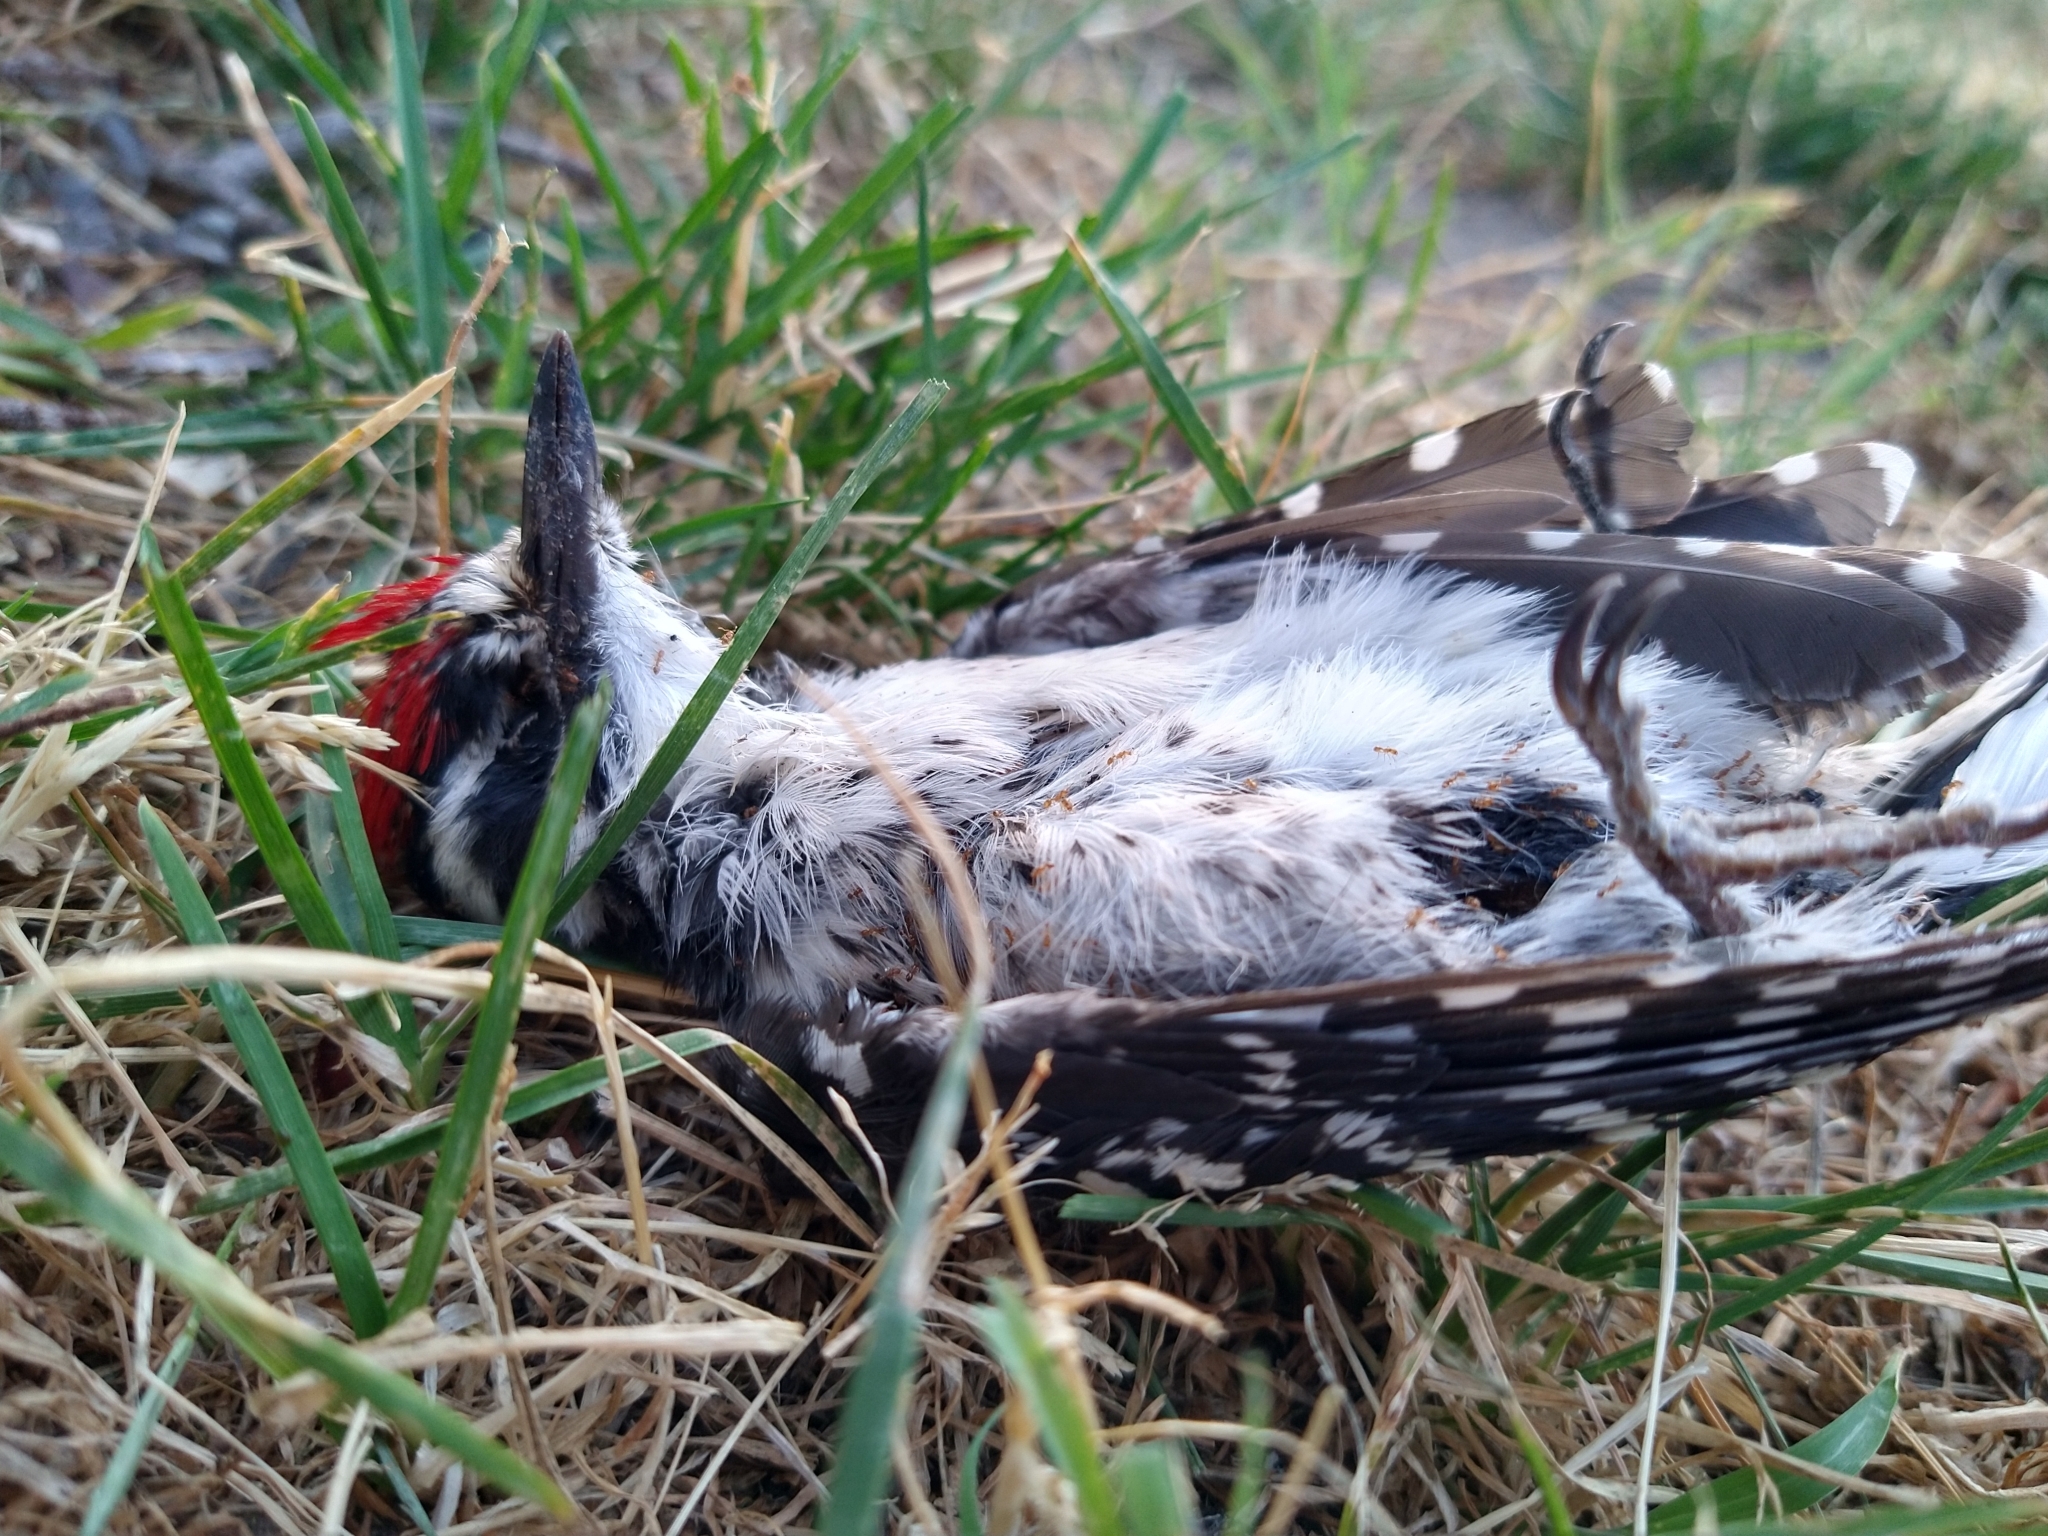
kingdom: Animalia
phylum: Chordata
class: Aves
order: Piciformes
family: Picidae
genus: Dryobates
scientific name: Dryobates nuttallii
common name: Nuttall's woodpecker
